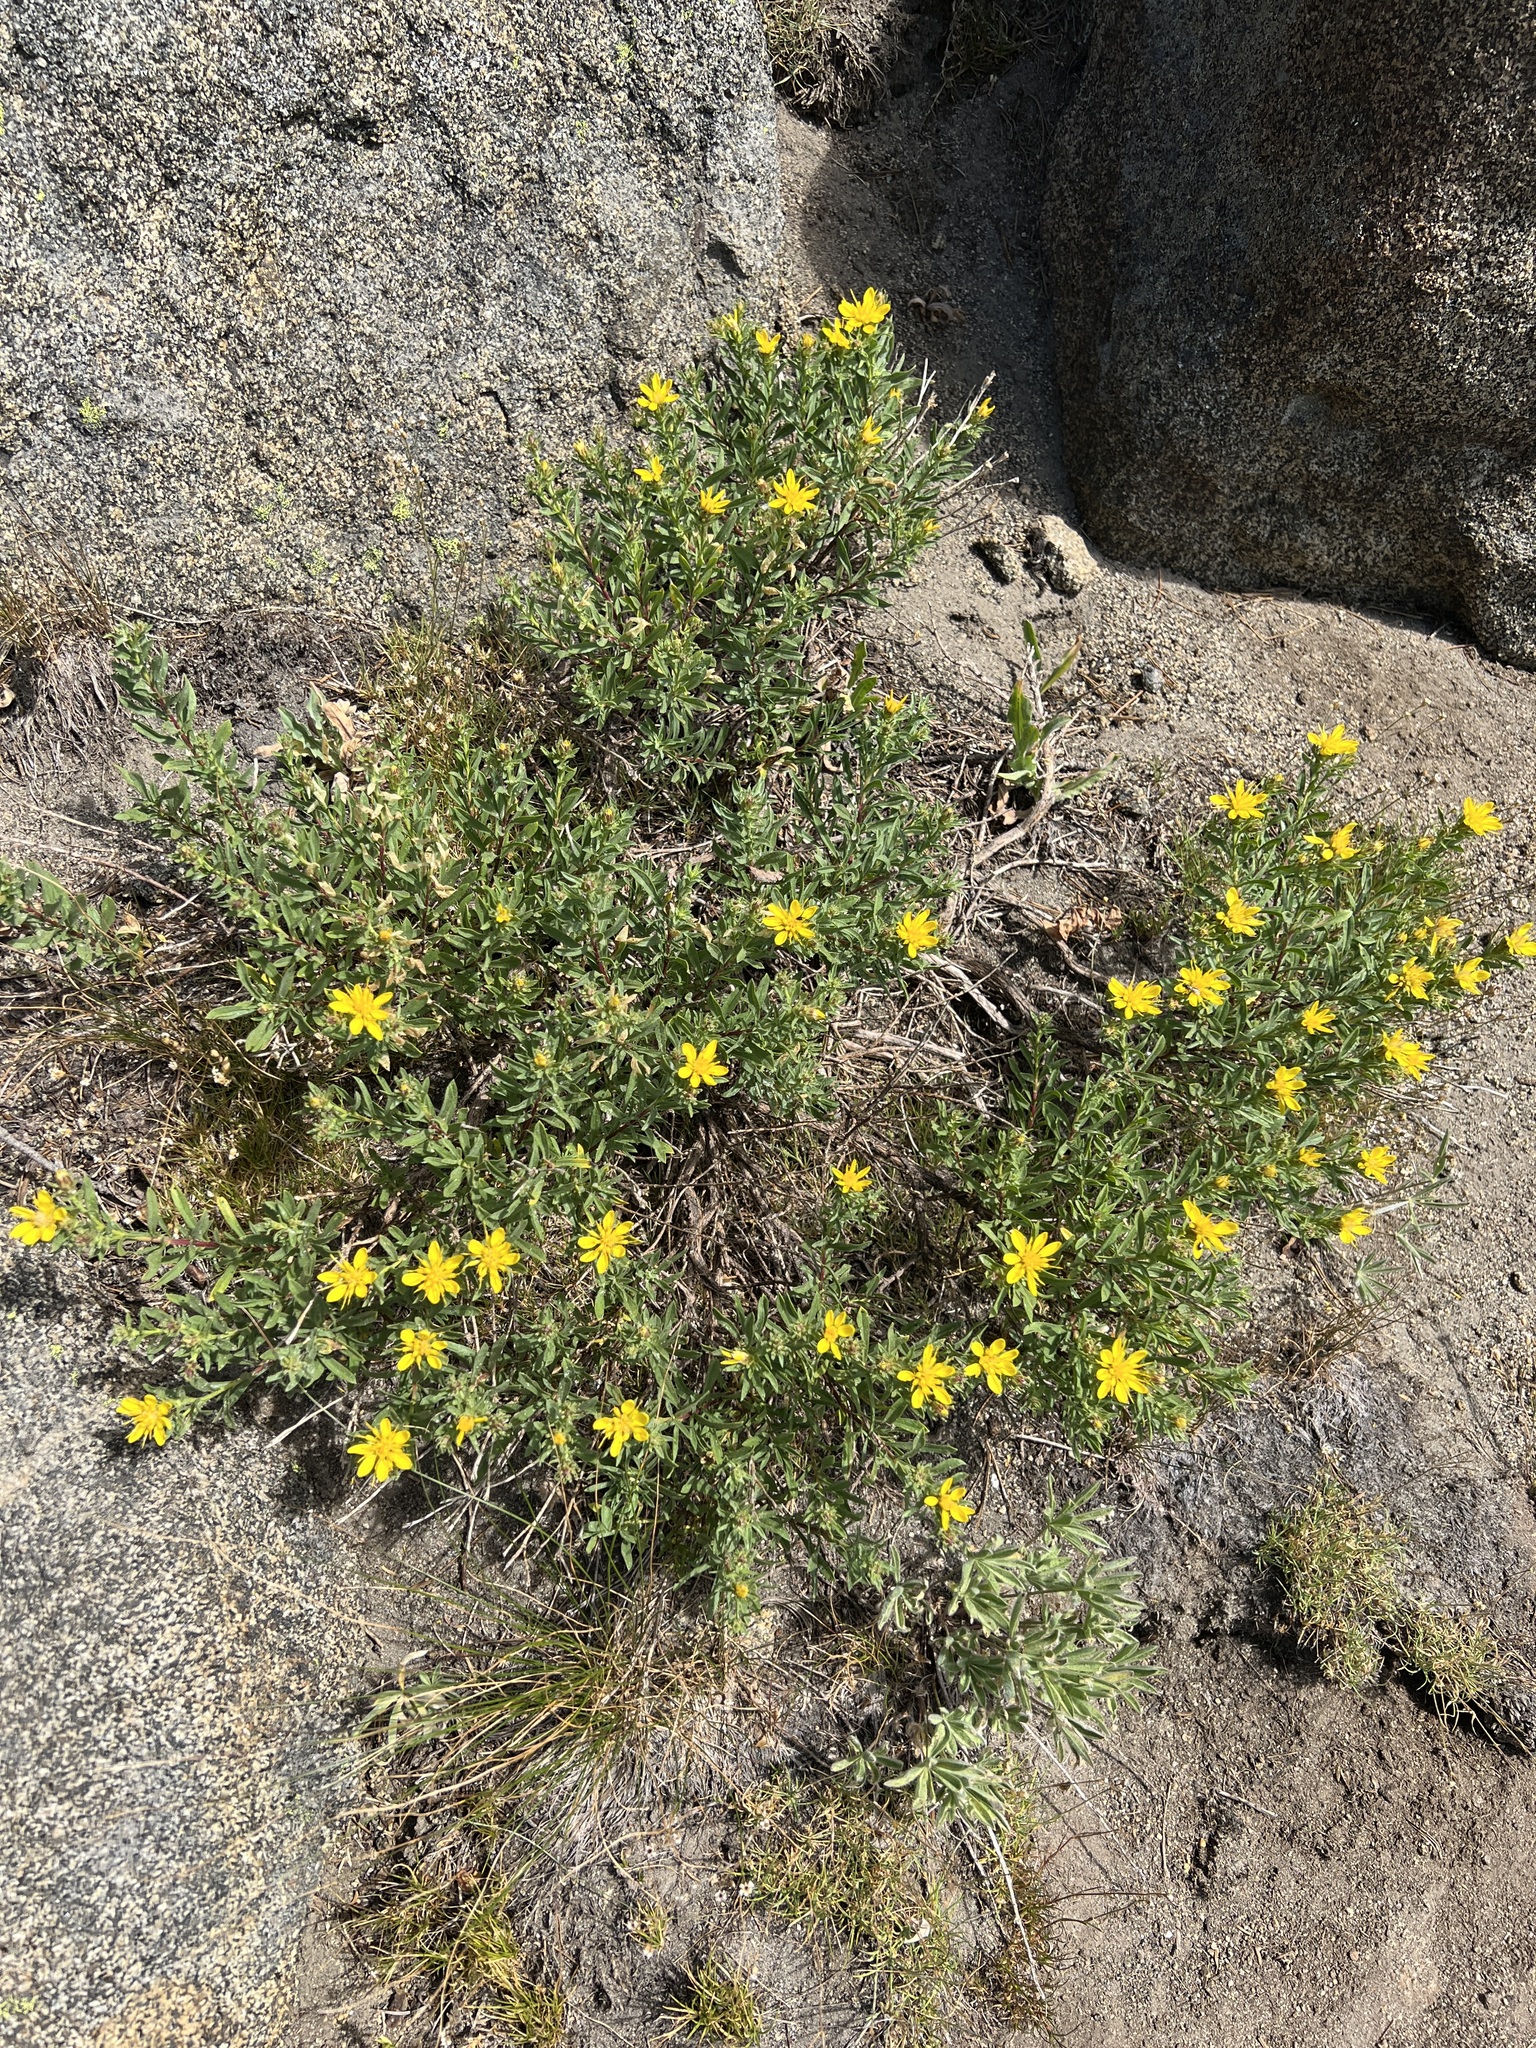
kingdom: Plantae
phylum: Tracheophyta
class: Magnoliopsida
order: Asterales
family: Asteraceae
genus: Ericameria
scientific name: Ericameria greenei
